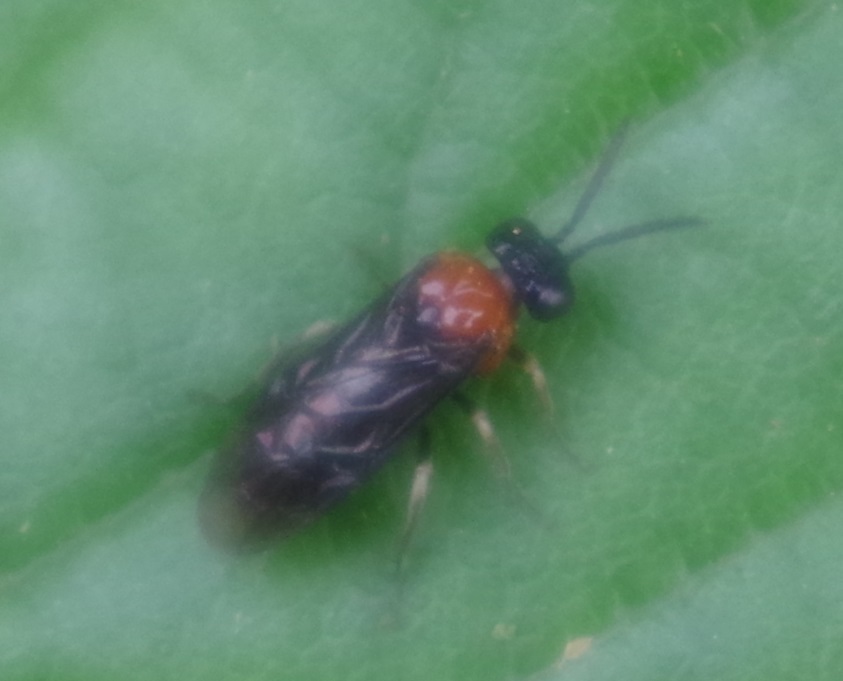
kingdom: Animalia
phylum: Arthropoda
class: Insecta
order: Hymenoptera
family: Tenthredinidae
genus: Eutomostethus
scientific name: Eutomostethus ephippium
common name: Tenthredid wasp
